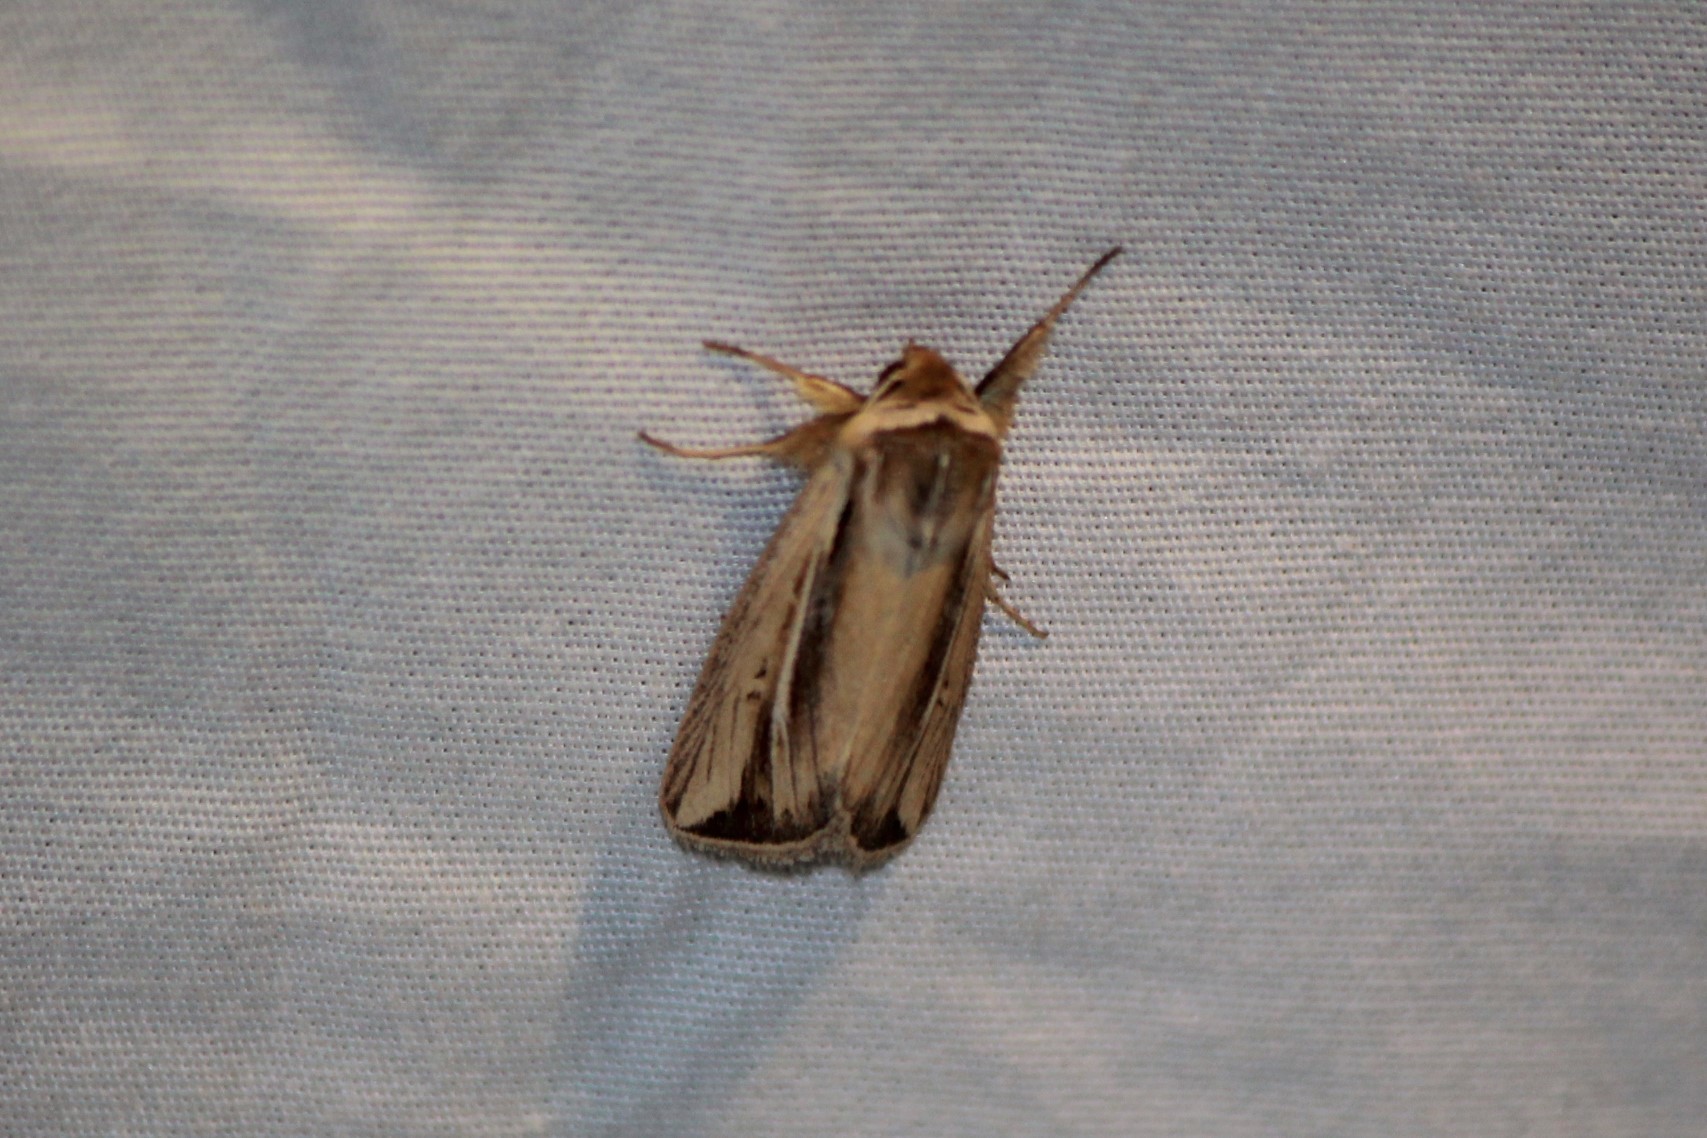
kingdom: Animalia
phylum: Arthropoda
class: Insecta
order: Lepidoptera
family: Noctuidae
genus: Dargida
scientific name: Dargida diffusa
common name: Wheat head armyworm
